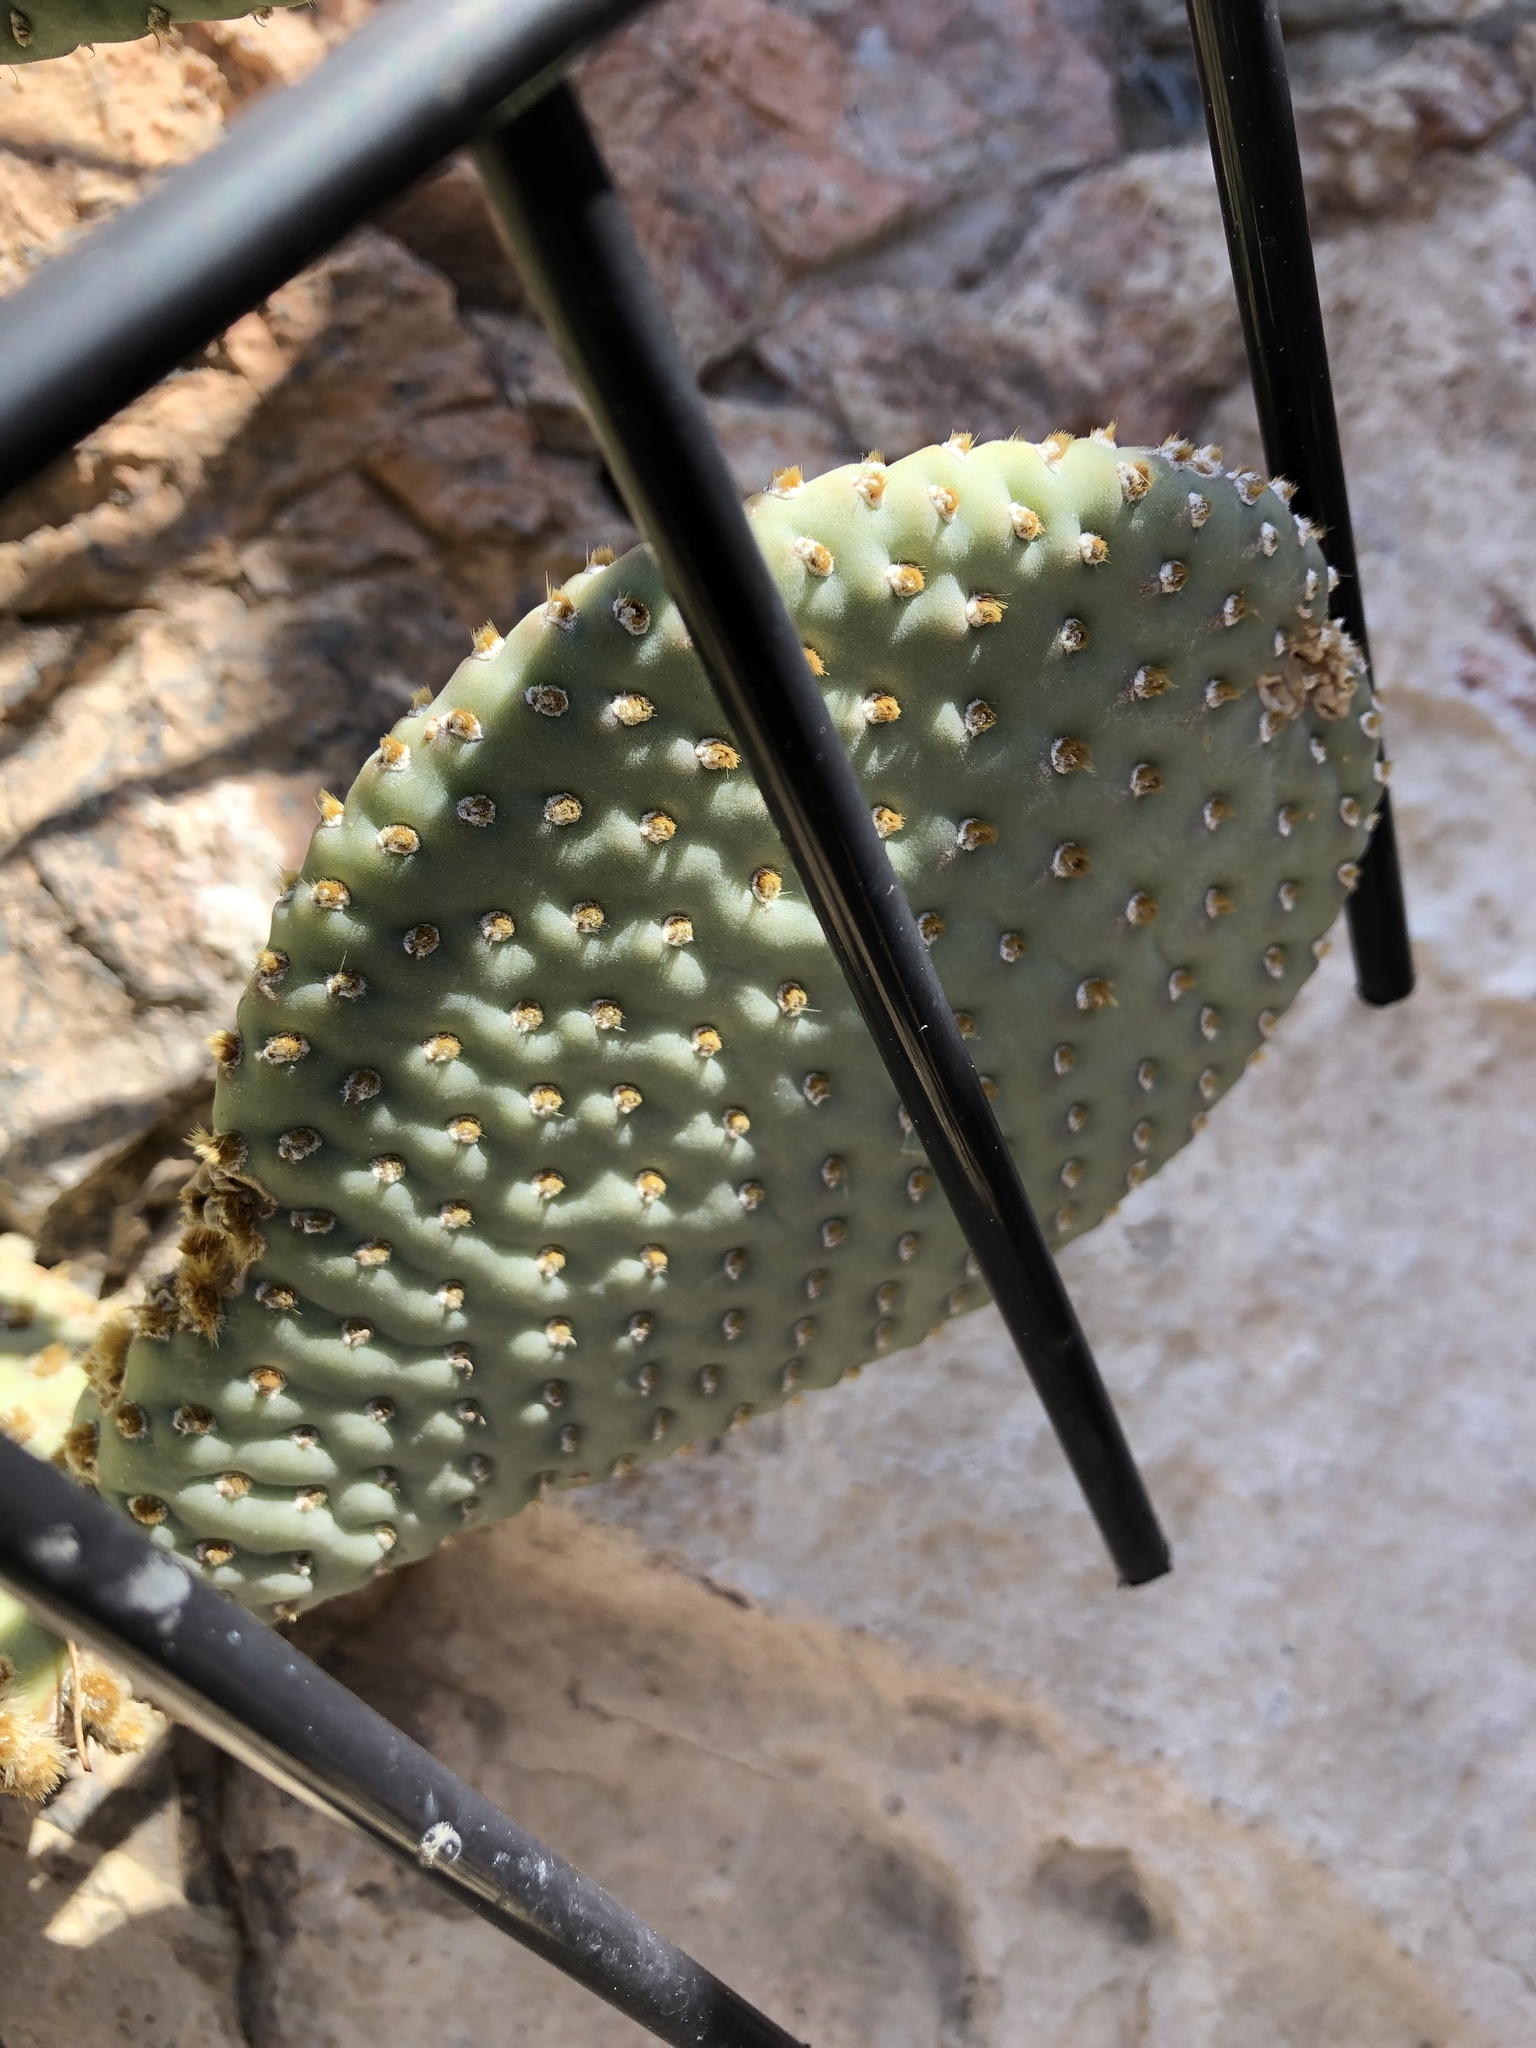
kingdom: Plantae
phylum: Tracheophyta
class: Magnoliopsida
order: Caryophyllales
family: Cactaceae
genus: Opuntia
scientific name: Opuntia basilaris
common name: Beavertail prickly-pear
